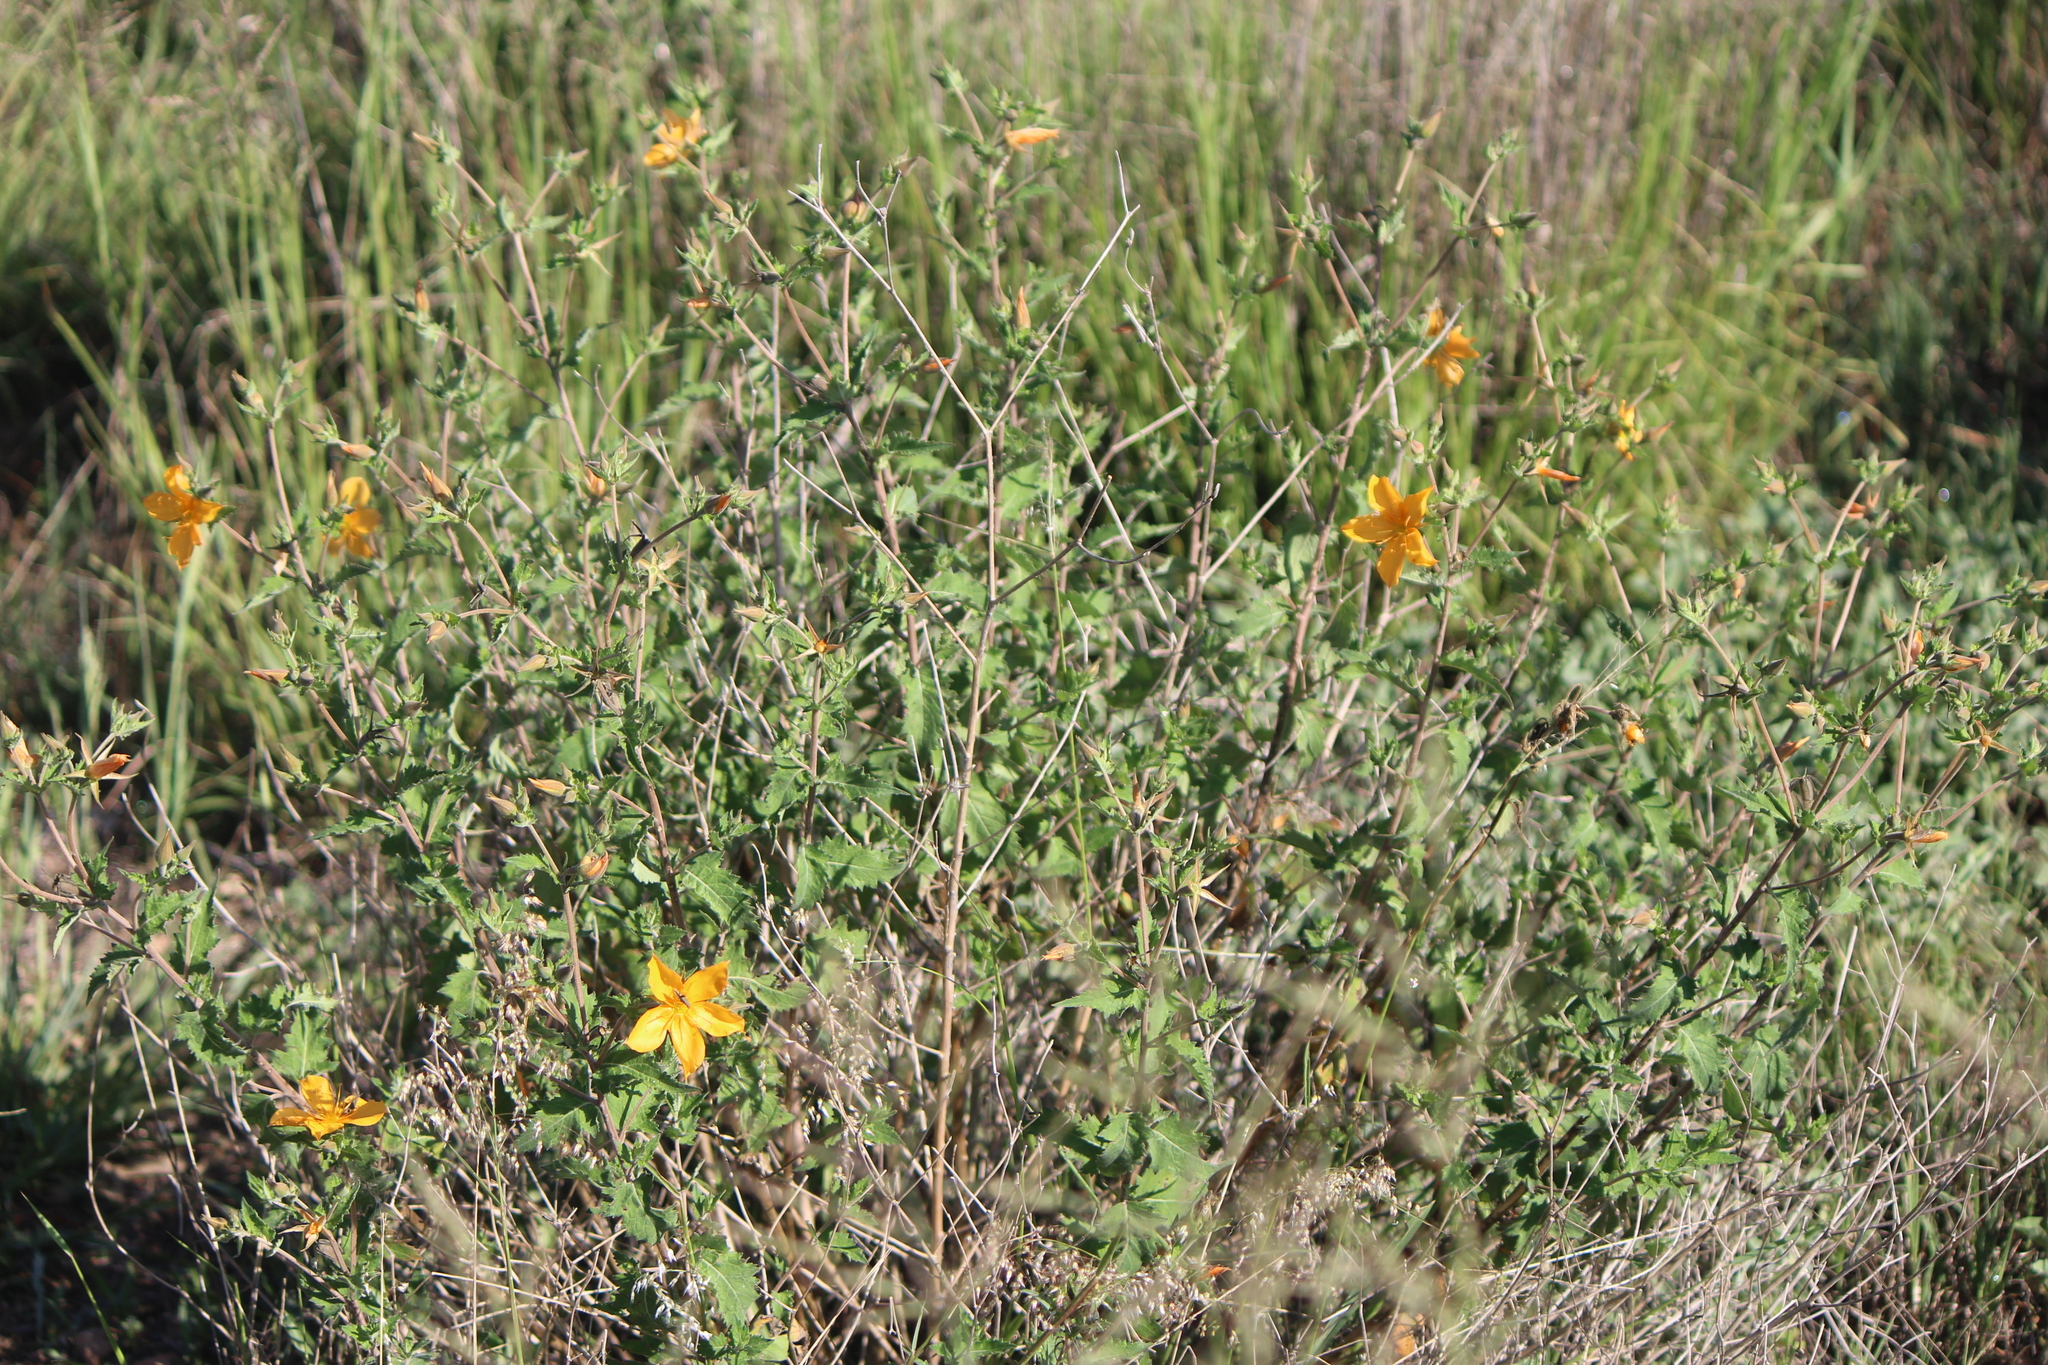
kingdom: Plantae
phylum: Tracheophyta
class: Magnoliopsida
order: Cornales
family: Loasaceae
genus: Mentzelia
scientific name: Mentzelia hispida
